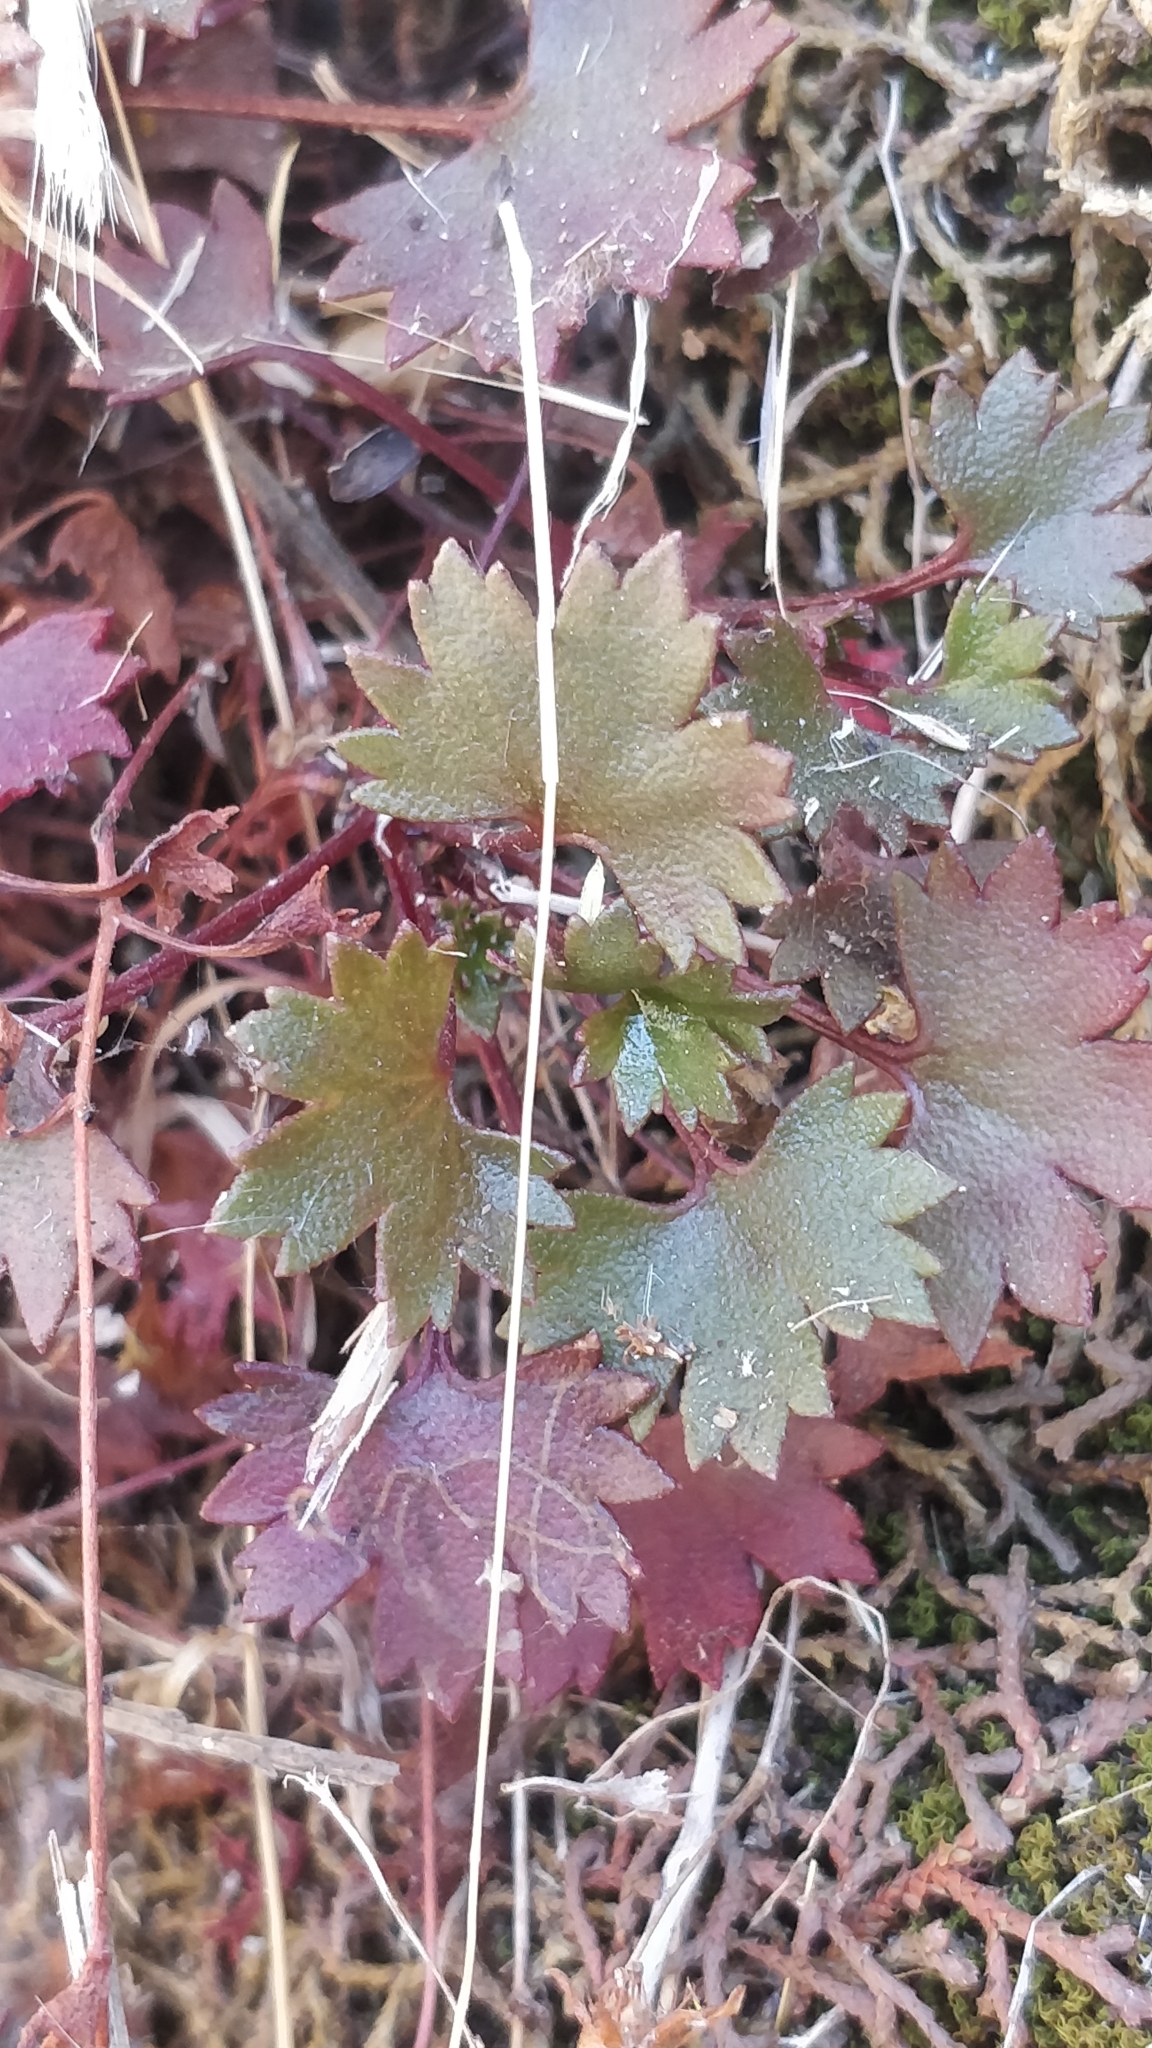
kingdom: Plantae
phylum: Tracheophyta
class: Magnoliopsida
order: Saxifragales
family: Saxifragaceae
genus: Saxifraga
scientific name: Saxifraga maderensis
